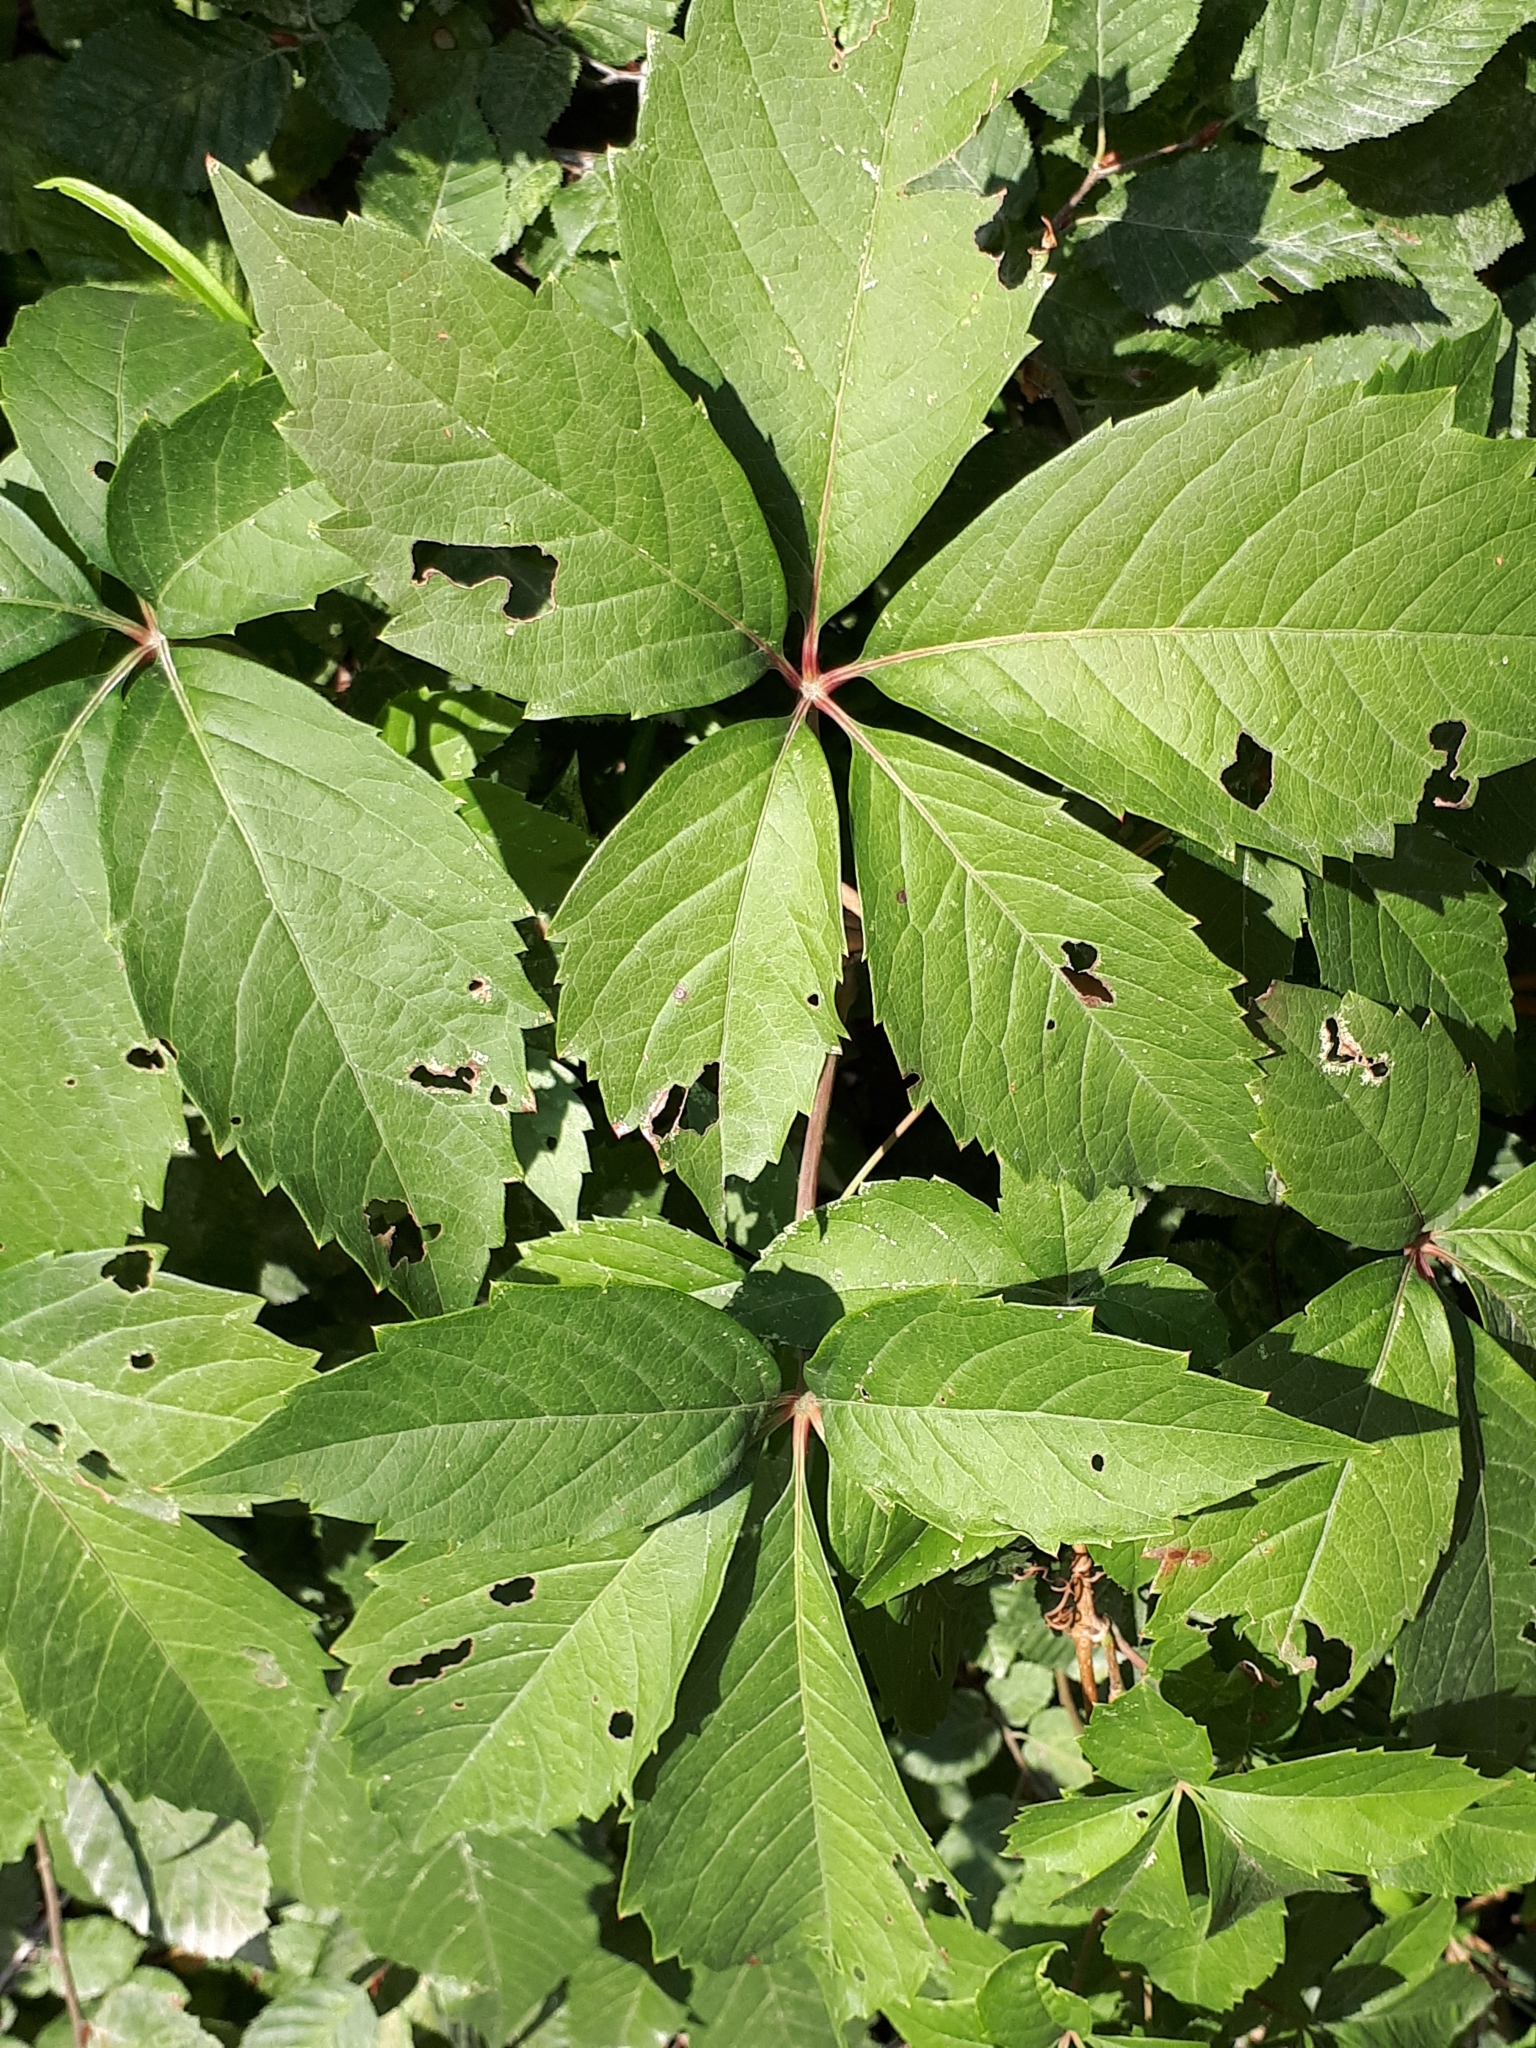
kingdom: Plantae
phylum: Tracheophyta
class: Magnoliopsida
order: Vitales
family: Vitaceae
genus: Parthenocissus
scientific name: Parthenocissus quinquefolia
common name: Virginia-creeper
